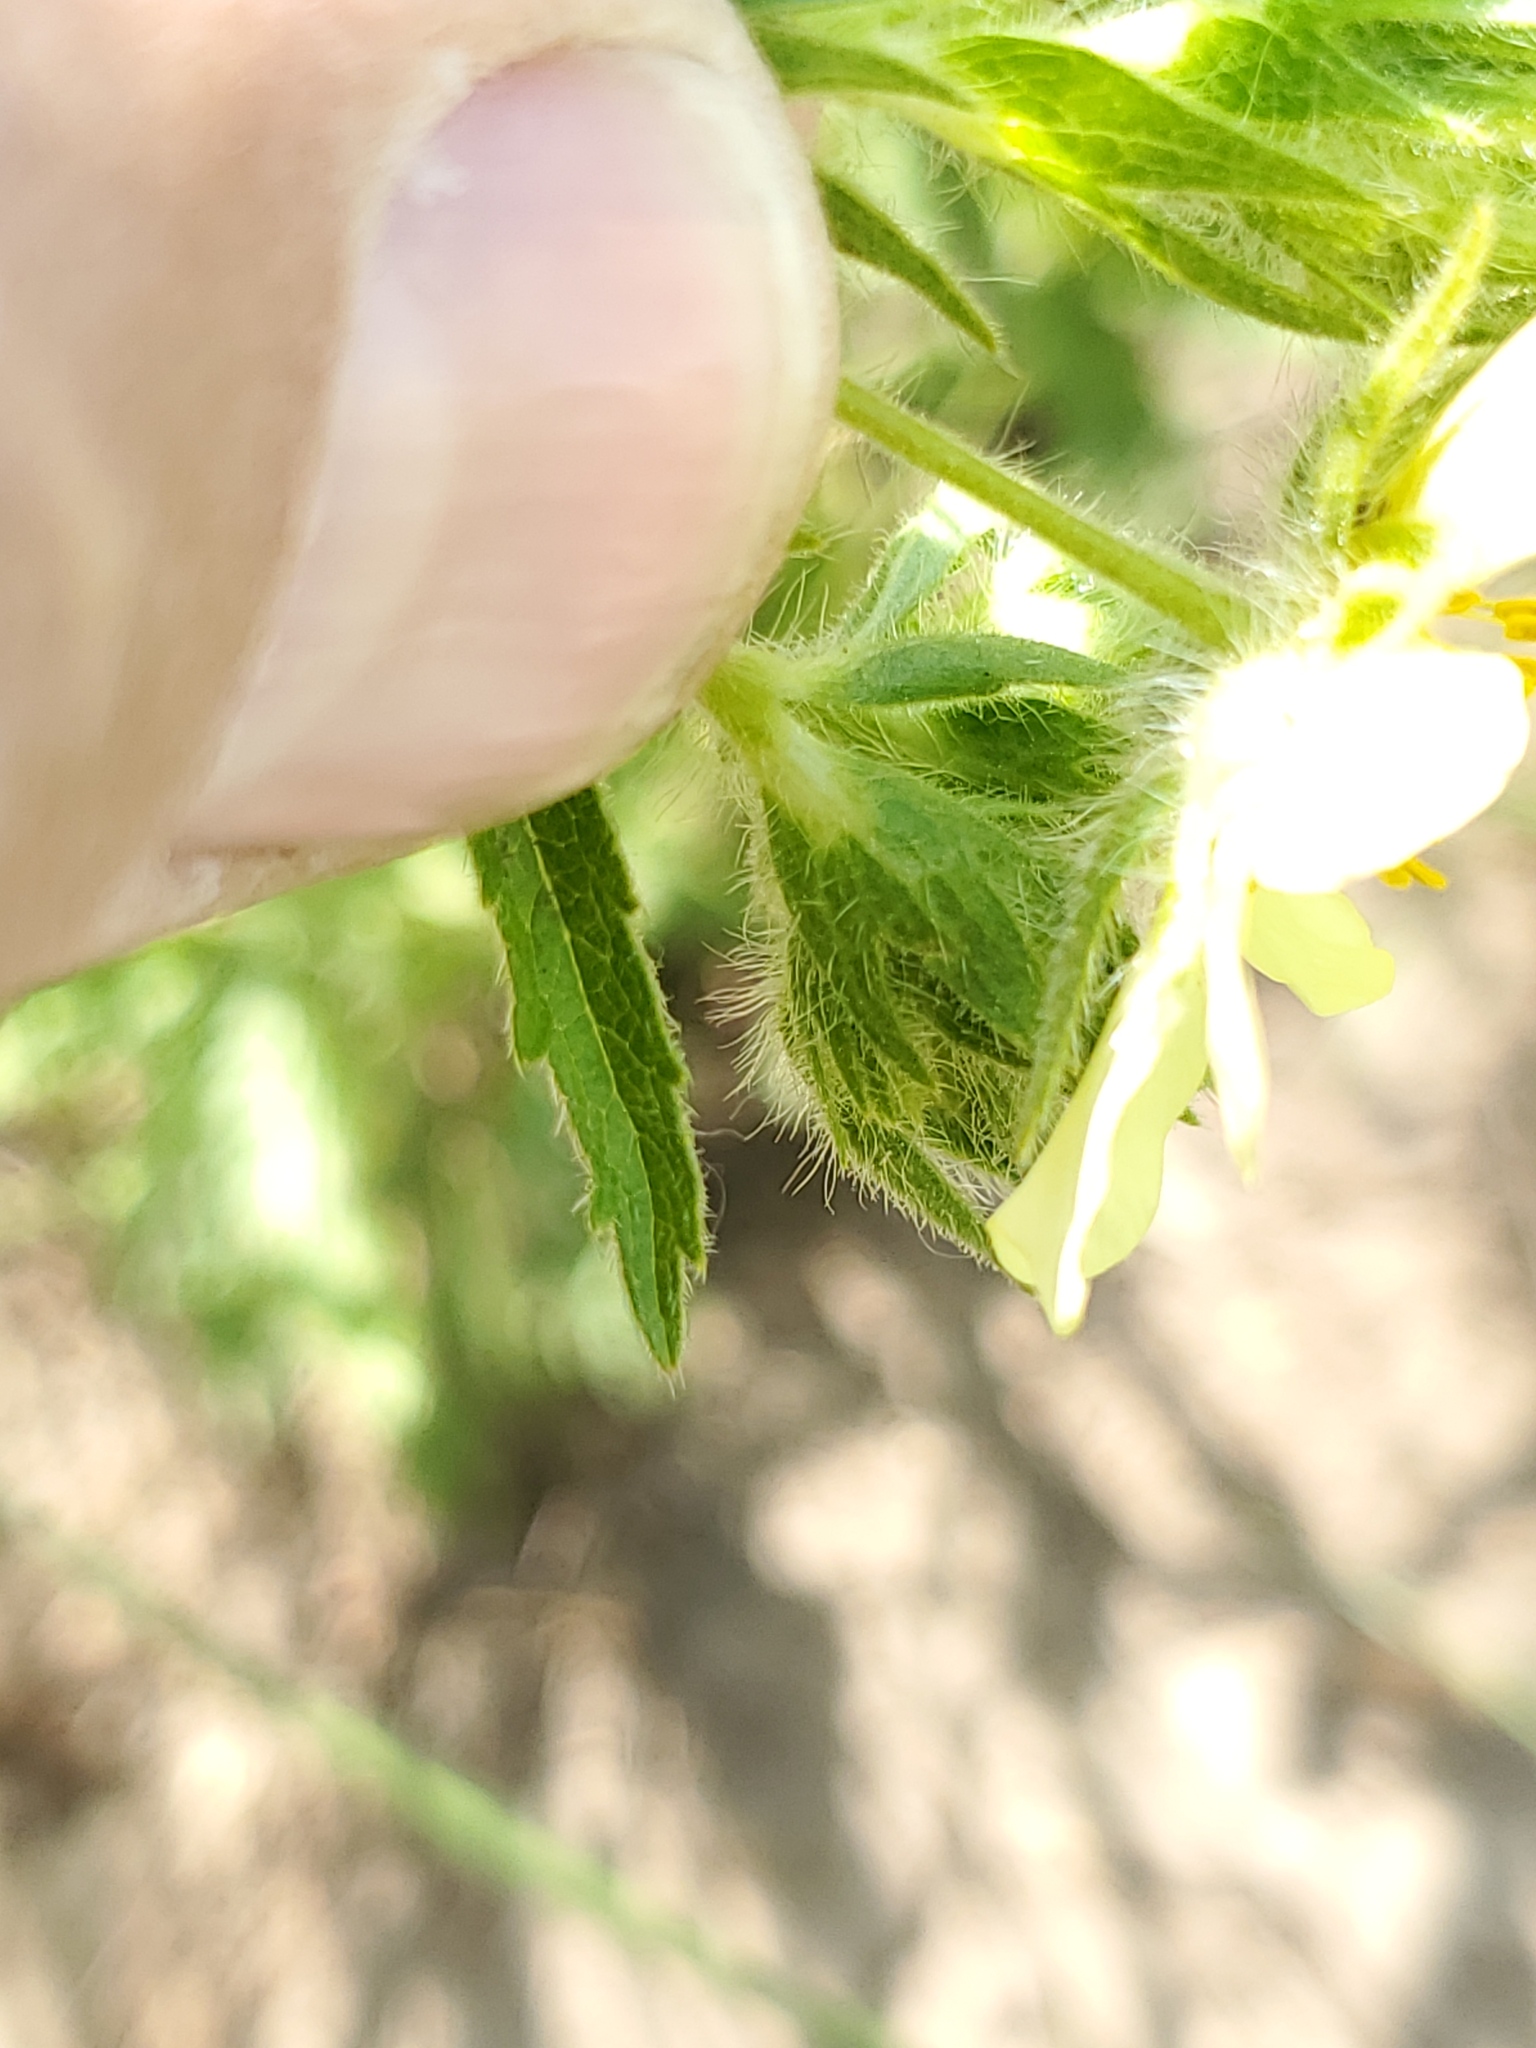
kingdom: Plantae
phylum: Tracheophyta
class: Magnoliopsida
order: Rosales
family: Rosaceae
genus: Potentilla
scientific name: Potentilla recta
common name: Sulphur cinquefoil
